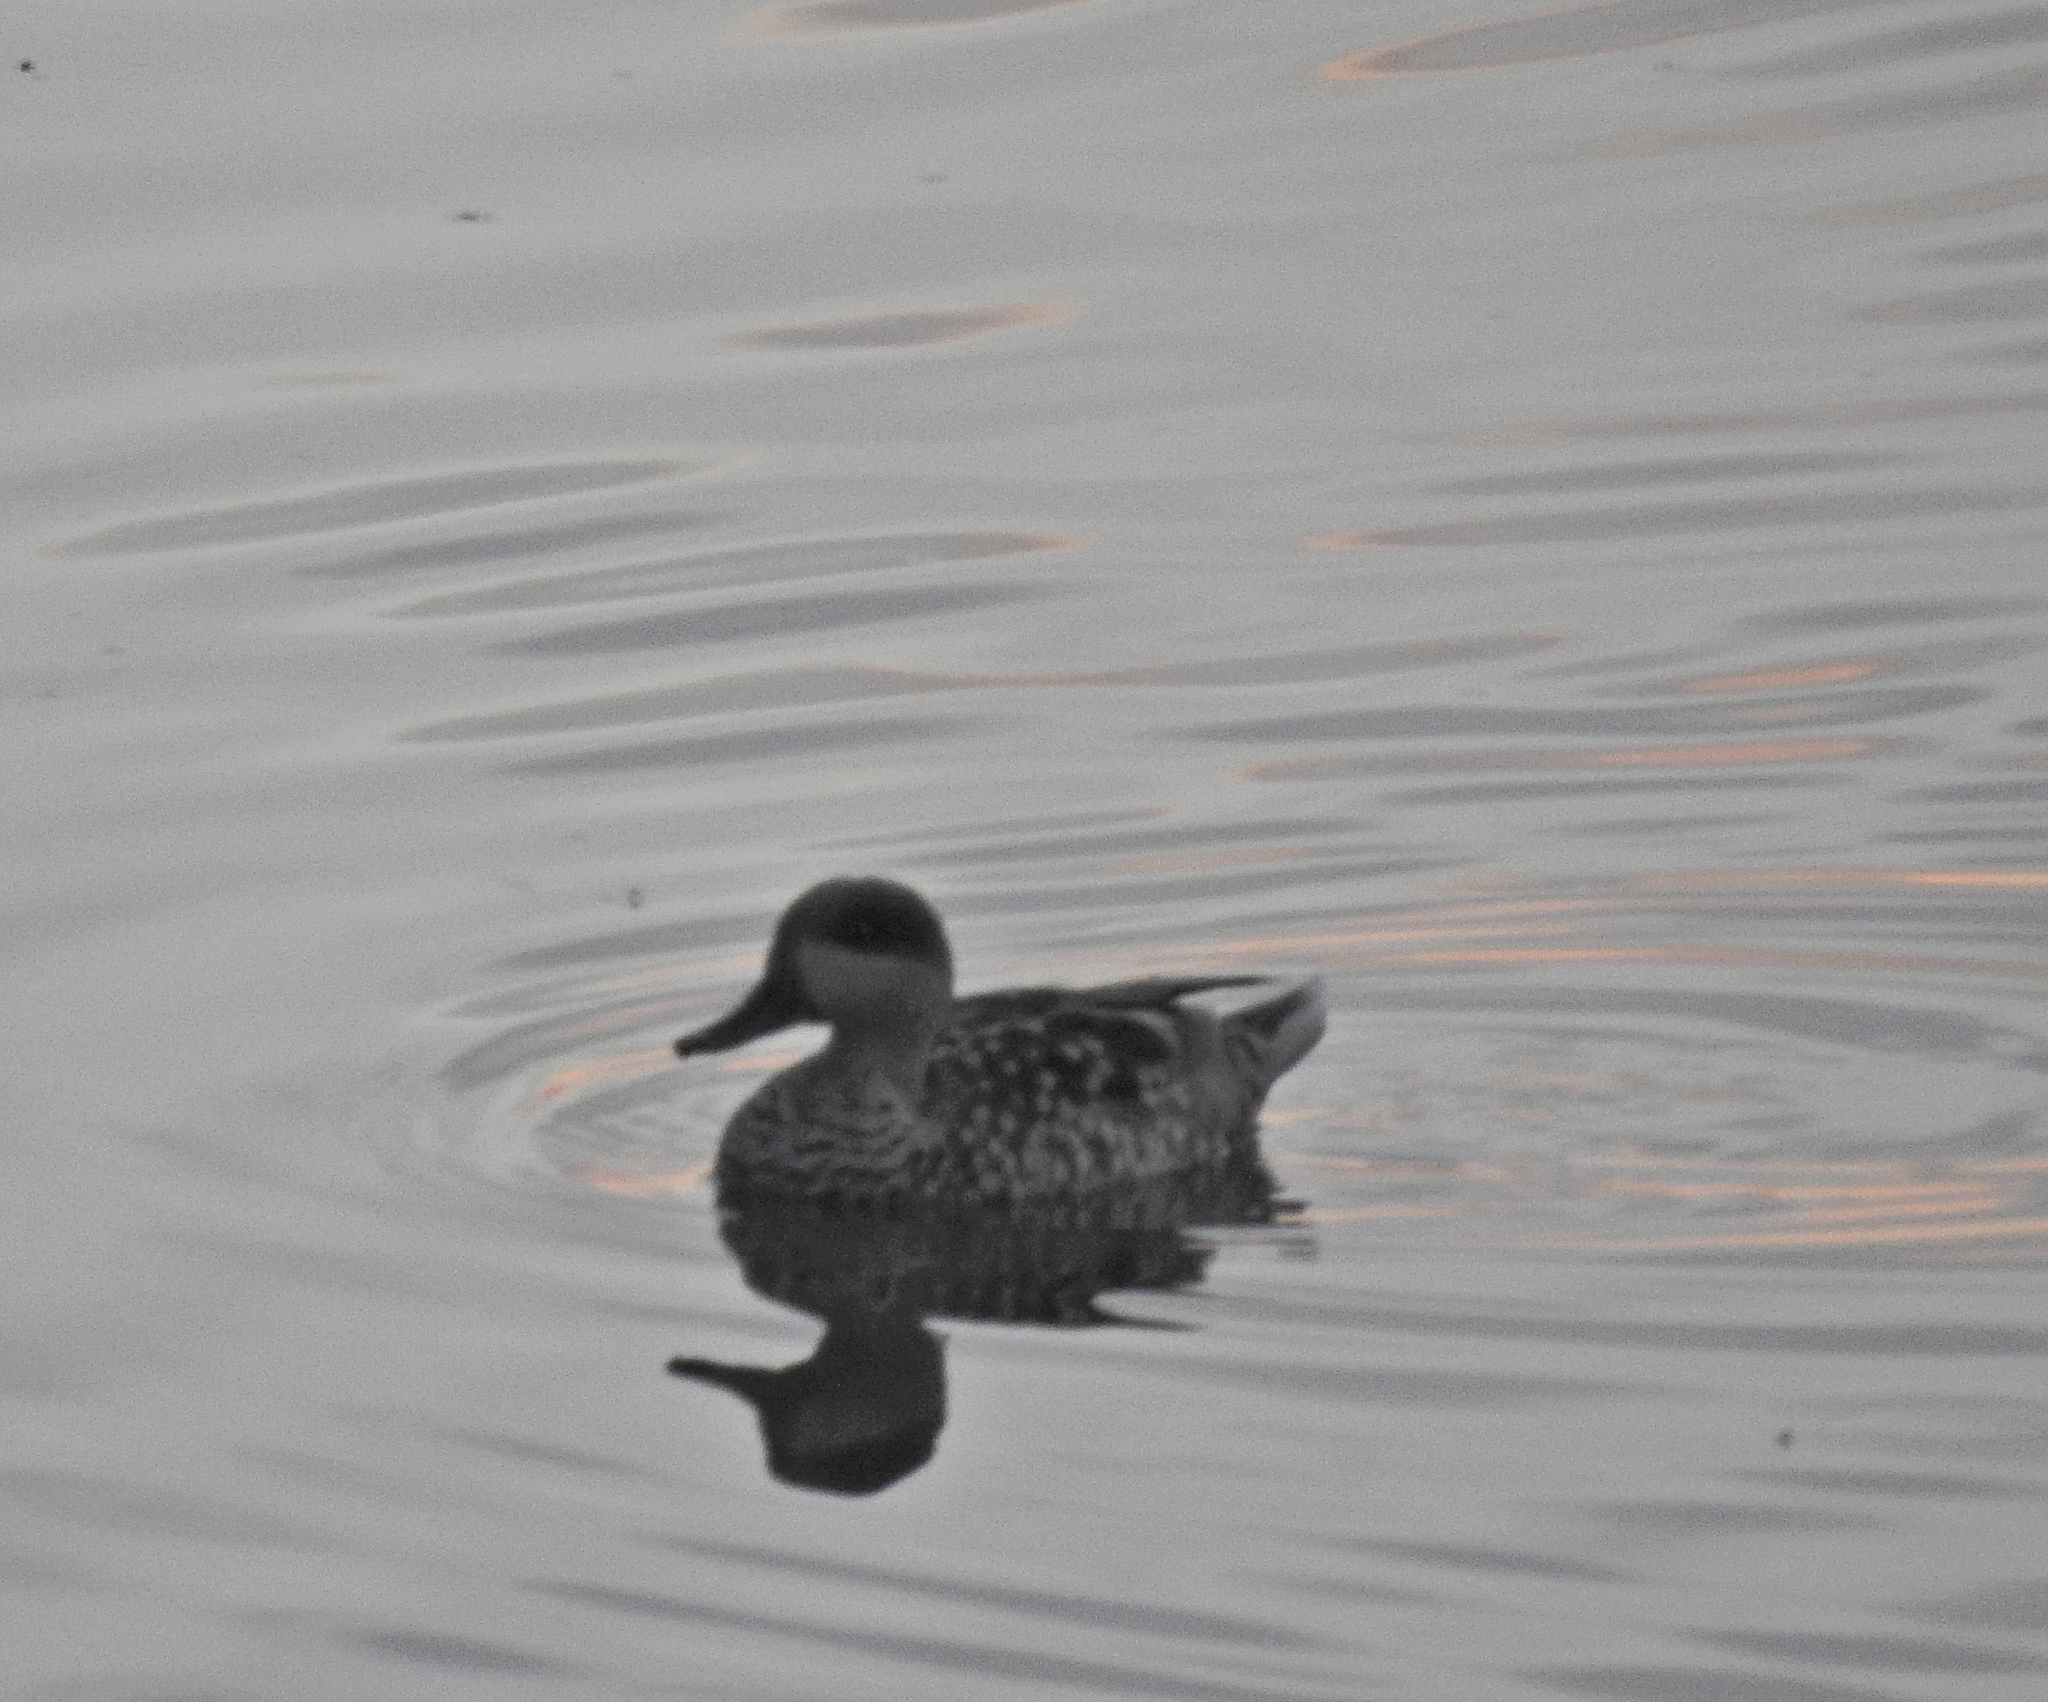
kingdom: Animalia
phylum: Chordata
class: Aves
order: Anseriformes
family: Anatidae
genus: Marmaronetta
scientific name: Marmaronetta angustirostris
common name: Marbled duck
